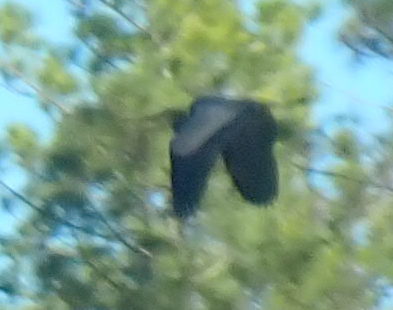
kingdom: Animalia
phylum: Chordata
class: Aves
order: Pelecaniformes
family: Ardeidae
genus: Ardea
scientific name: Ardea herodias
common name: Great blue heron
